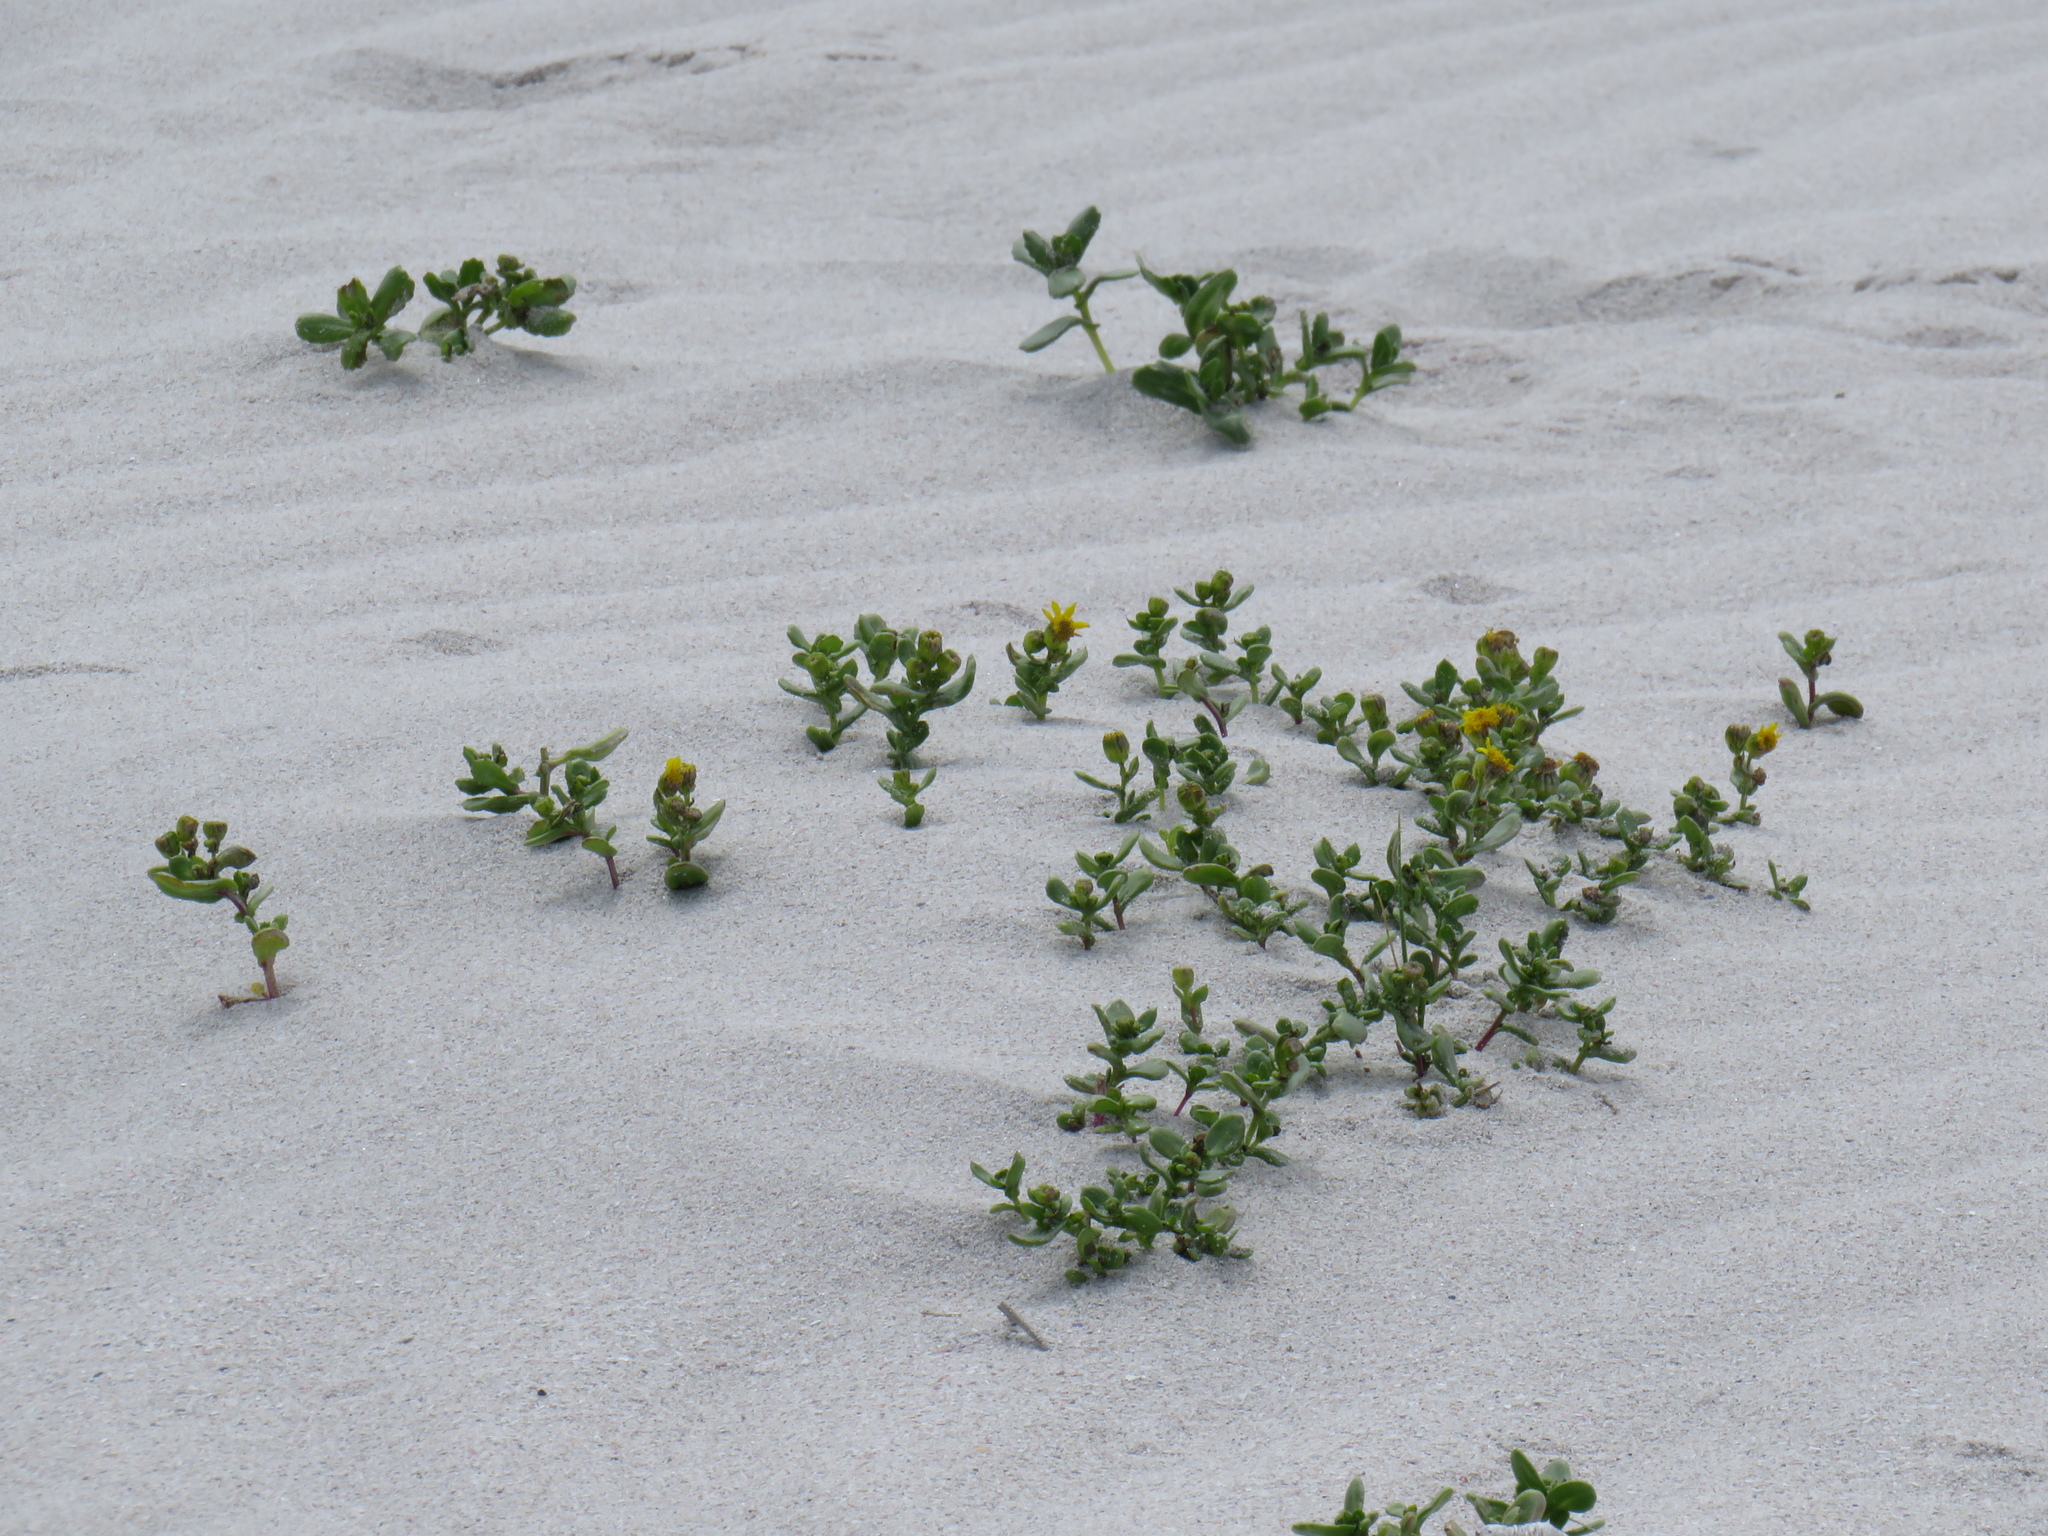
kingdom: Plantae
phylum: Tracheophyta
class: Magnoliopsida
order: Asterales
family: Asteraceae
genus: Senecio
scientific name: Senecio maritimus
